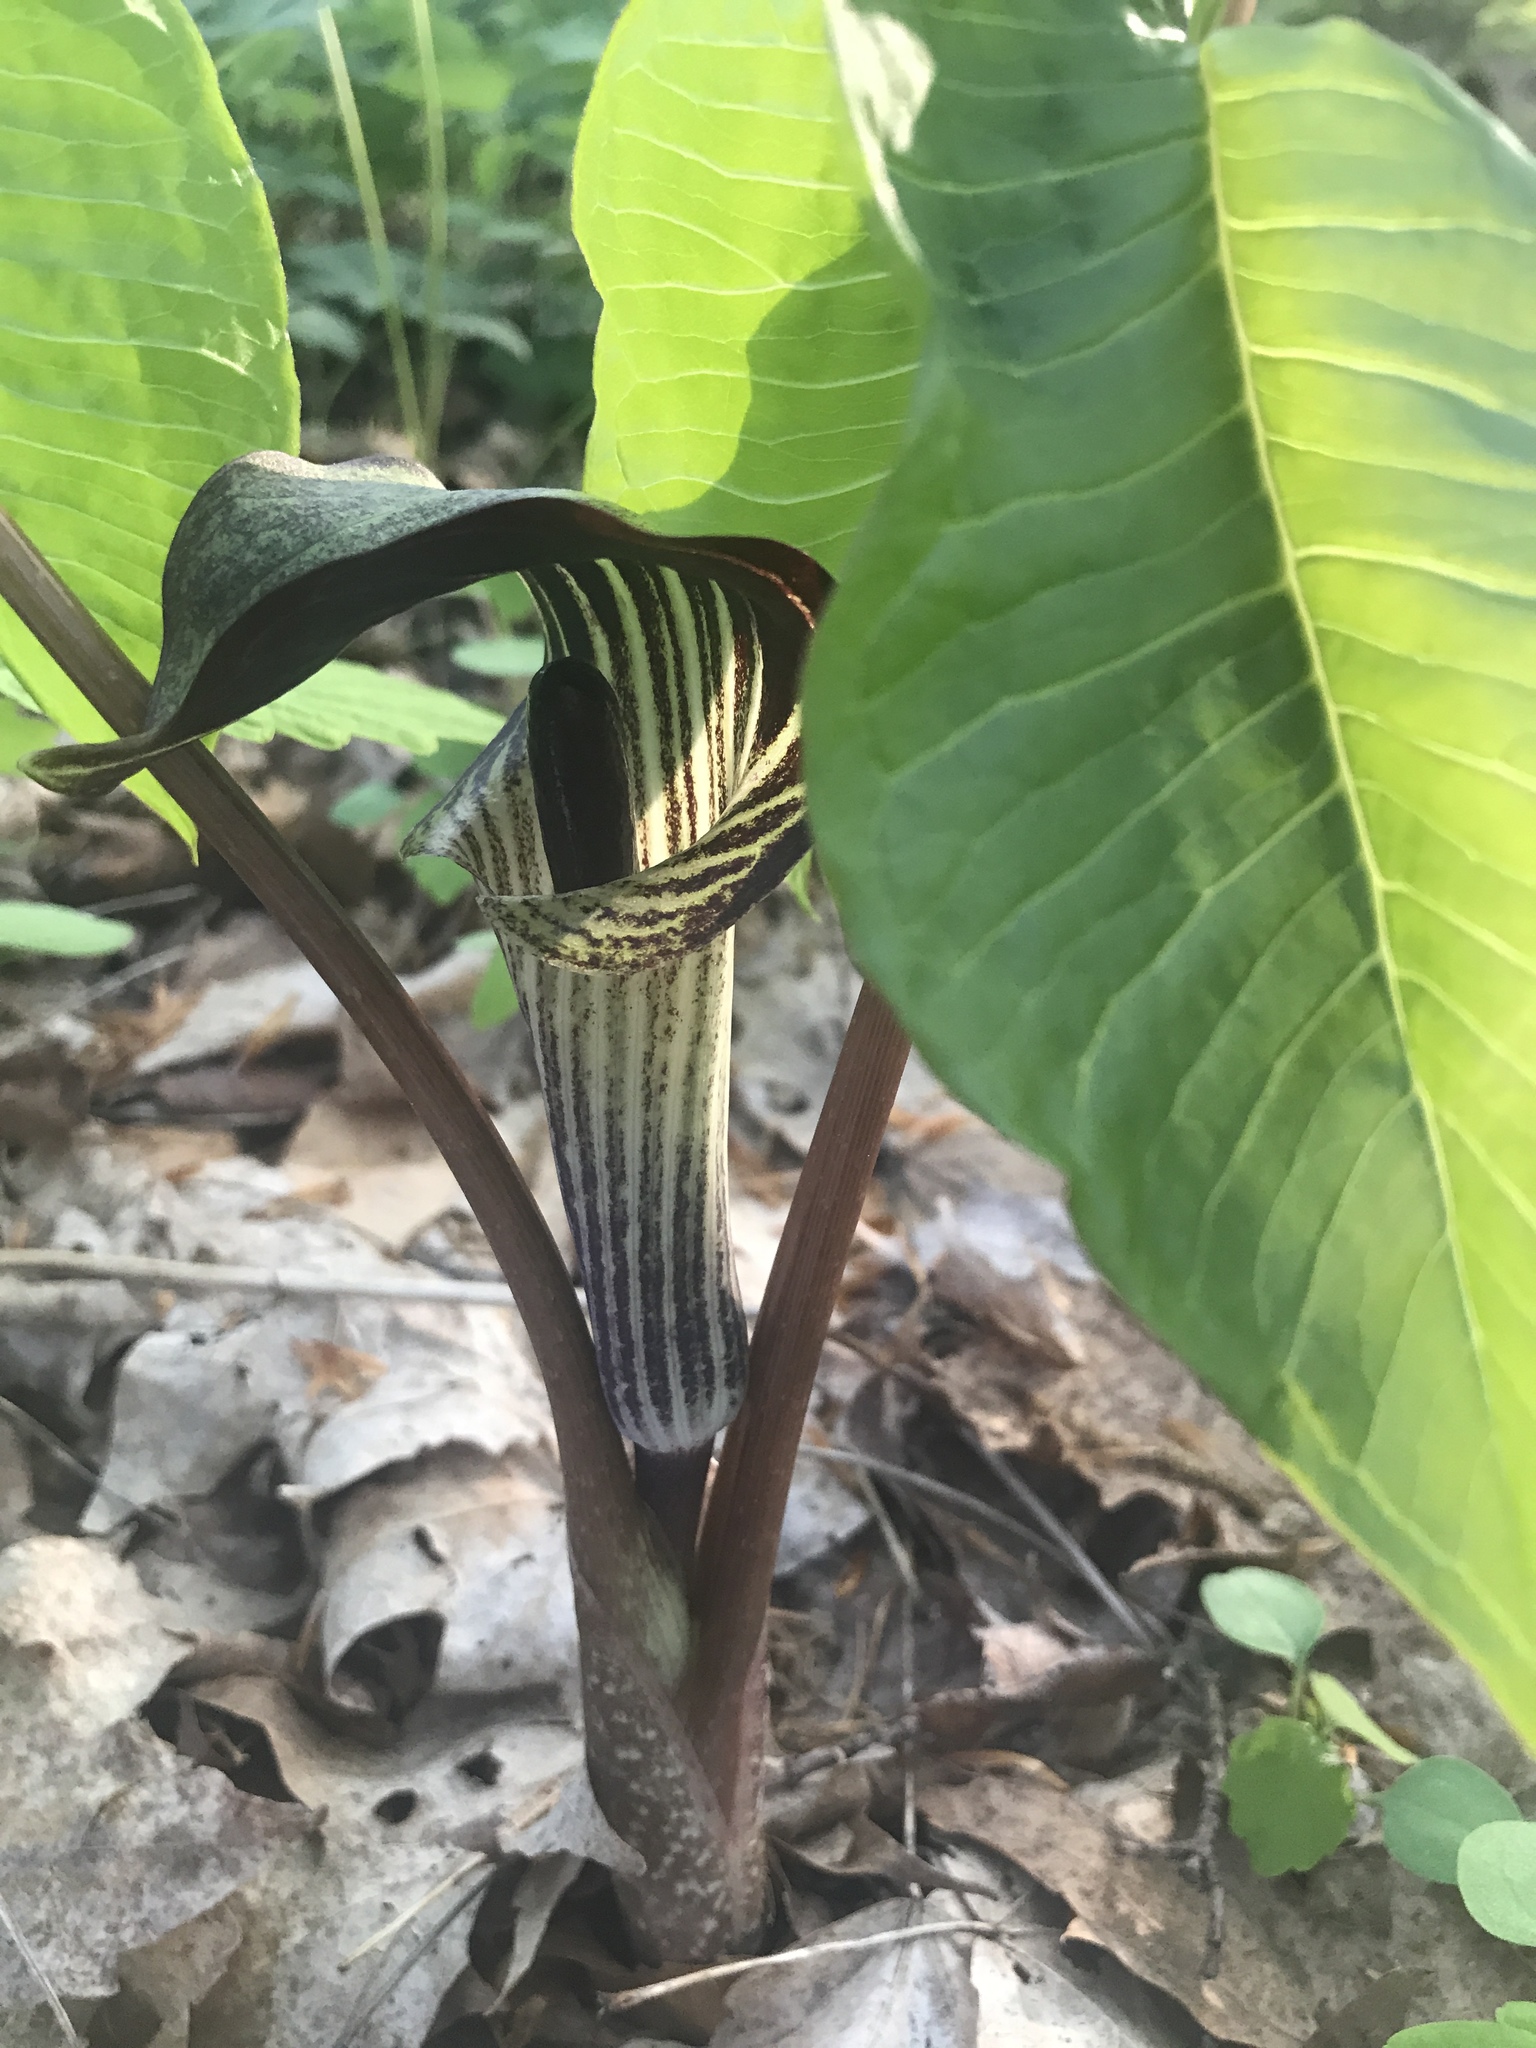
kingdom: Plantae
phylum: Tracheophyta
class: Liliopsida
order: Alismatales
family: Araceae
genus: Arisaema
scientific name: Arisaema triphyllum
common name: Jack-in-the-pulpit
